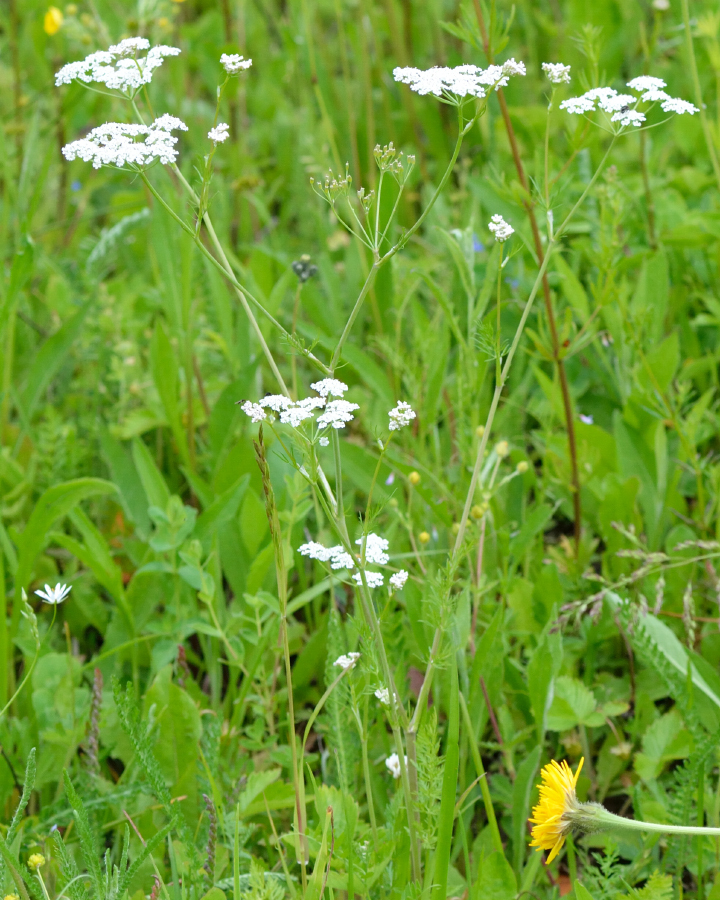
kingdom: Plantae
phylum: Tracheophyta
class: Magnoliopsida
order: Apiales
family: Apiaceae
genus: Carum
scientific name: Carum carvi
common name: Caraway
